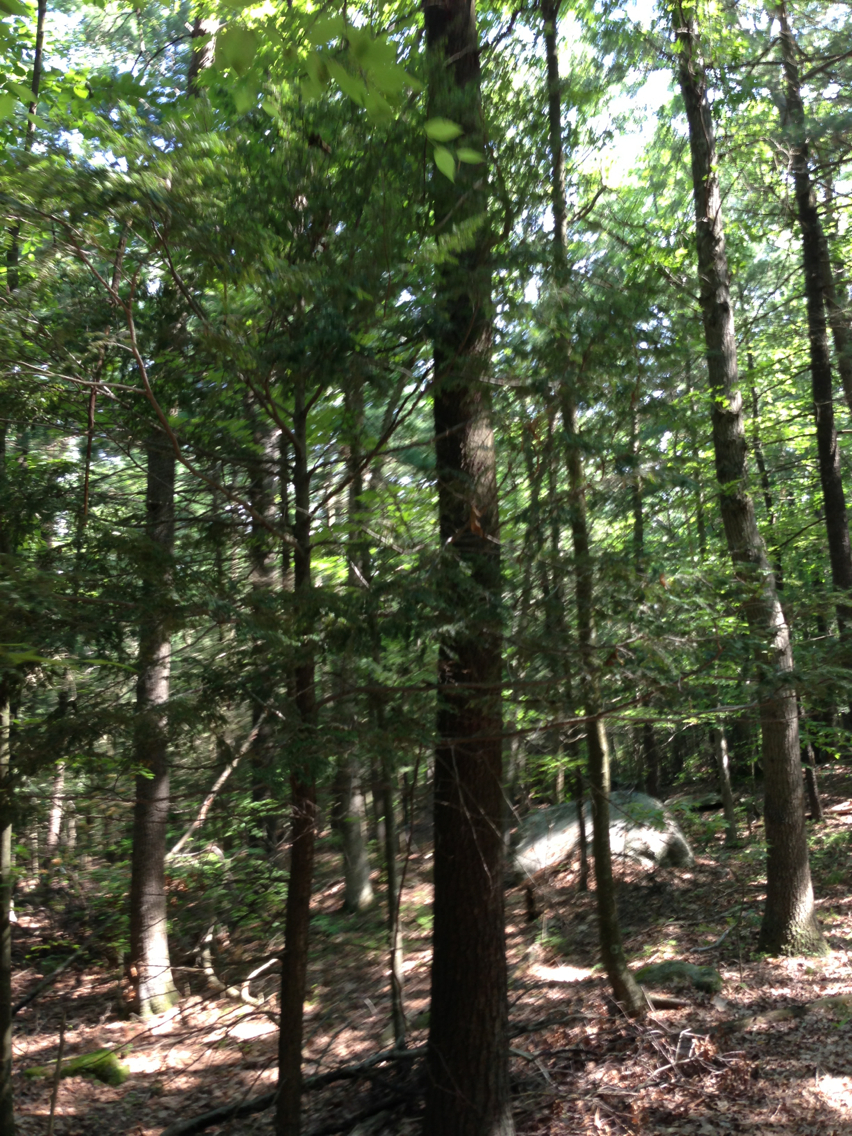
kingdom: Plantae
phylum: Tracheophyta
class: Pinopsida
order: Pinales
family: Pinaceae
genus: Tsuga
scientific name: Tsuga canadensis
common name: Eastern hemlock
